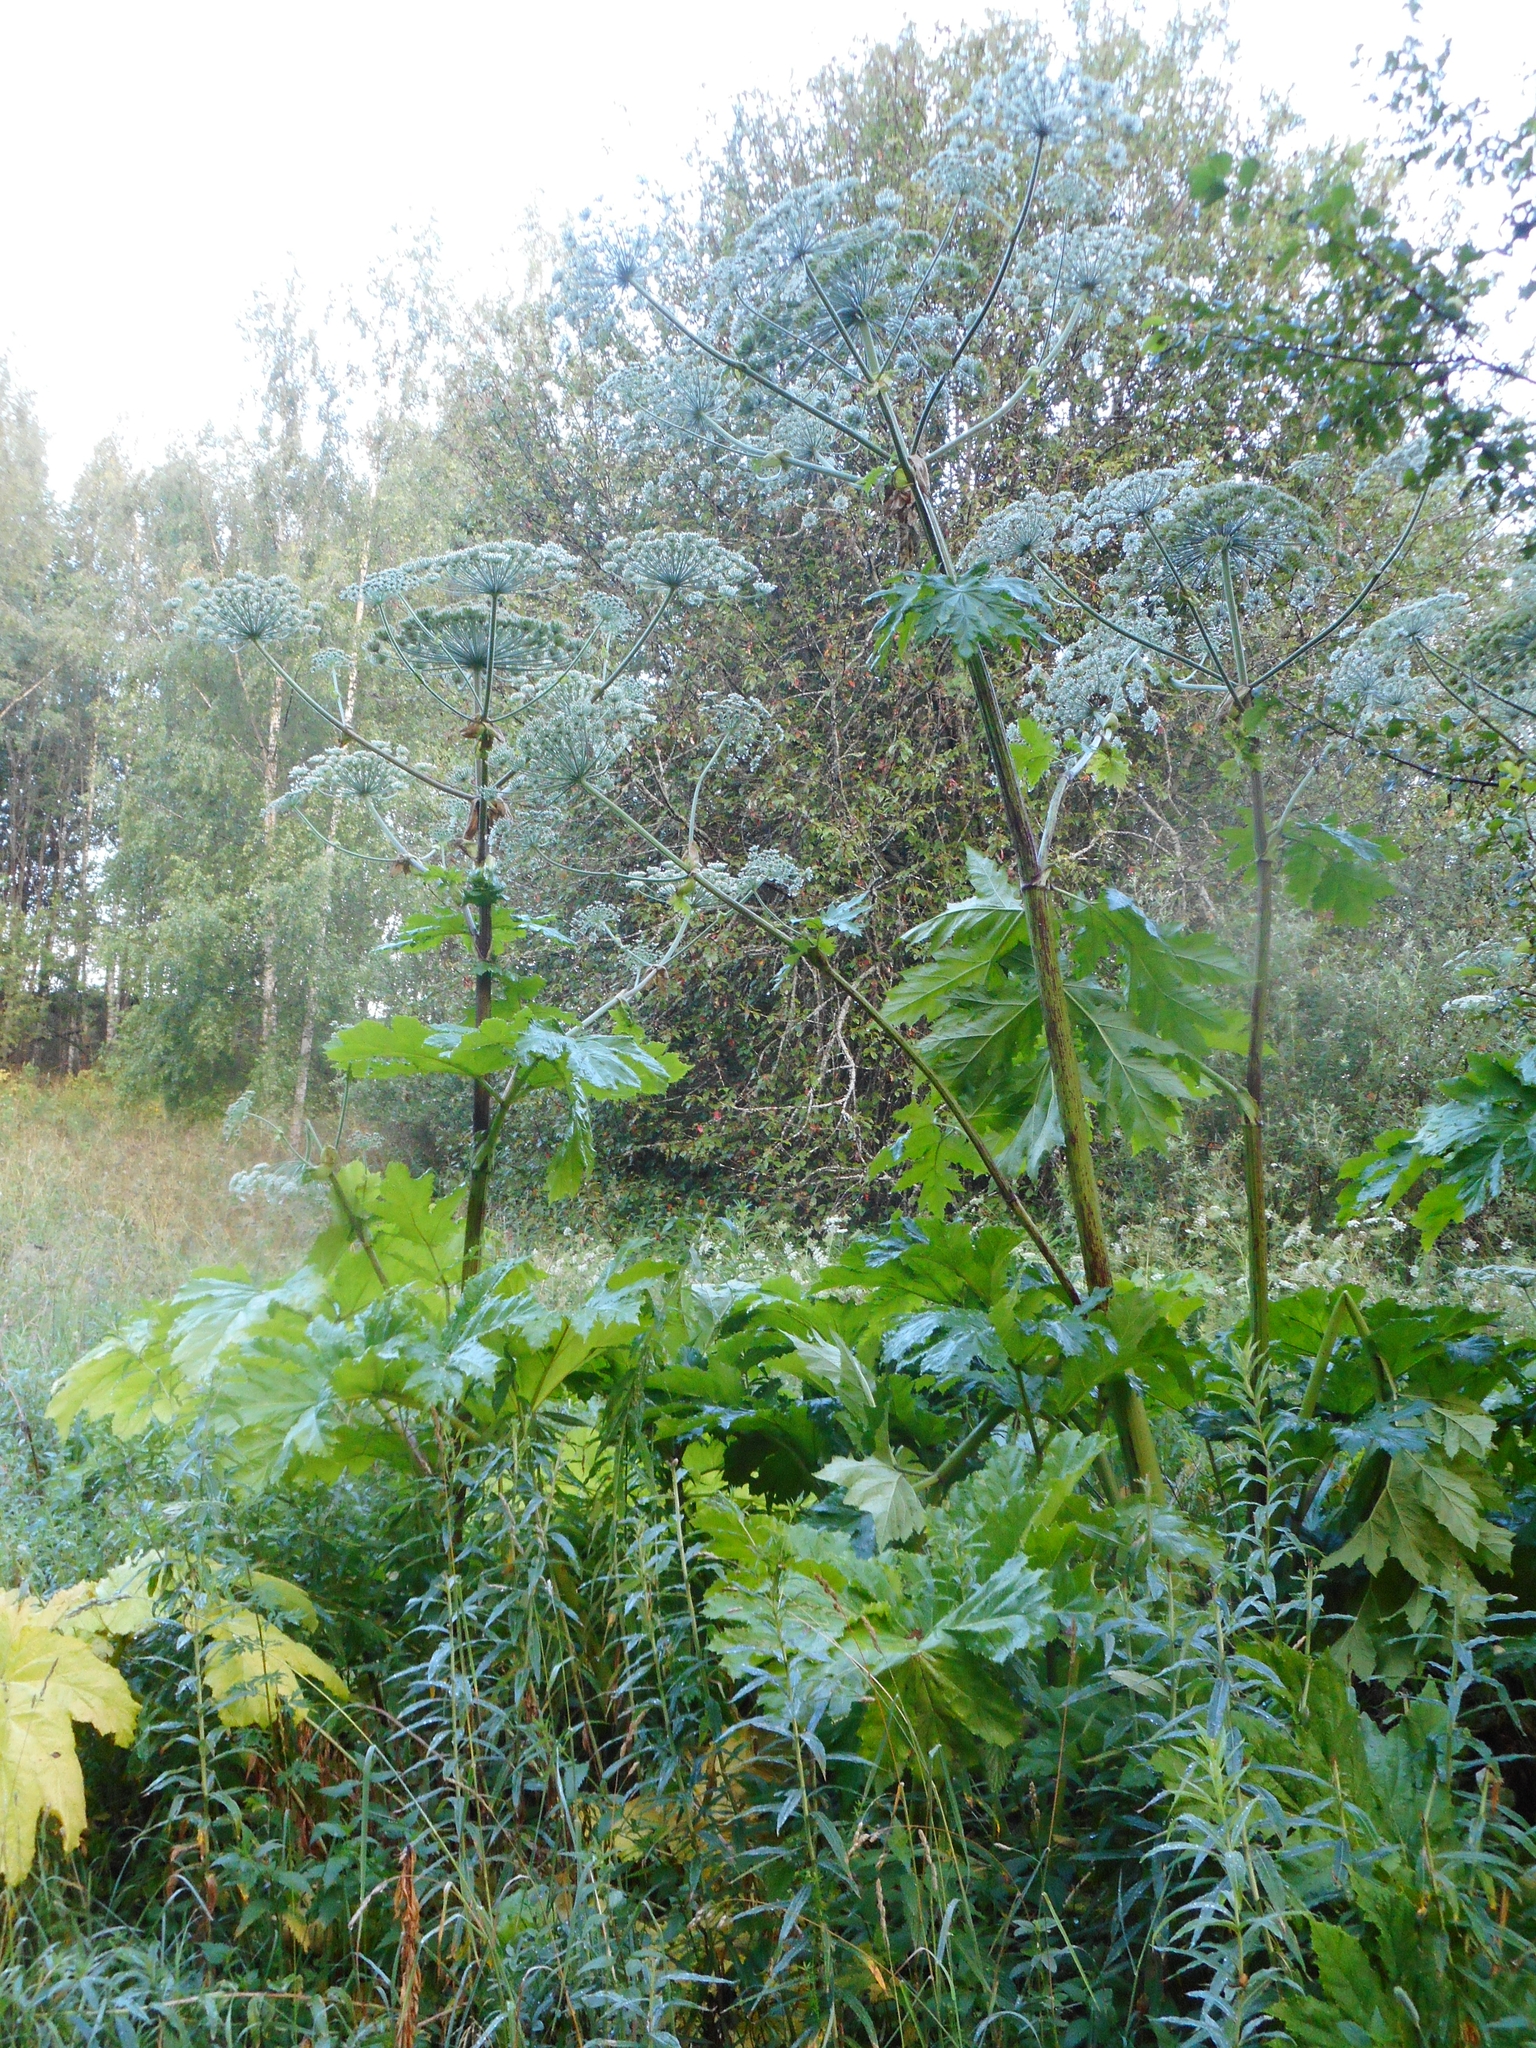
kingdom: Plantae
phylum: Tracheophyta
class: Magnoliopsida
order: Apiales
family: Apiaceae
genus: Heracleum
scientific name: Heracleum sosnowskyi
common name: Sosnowsky's hogweed
